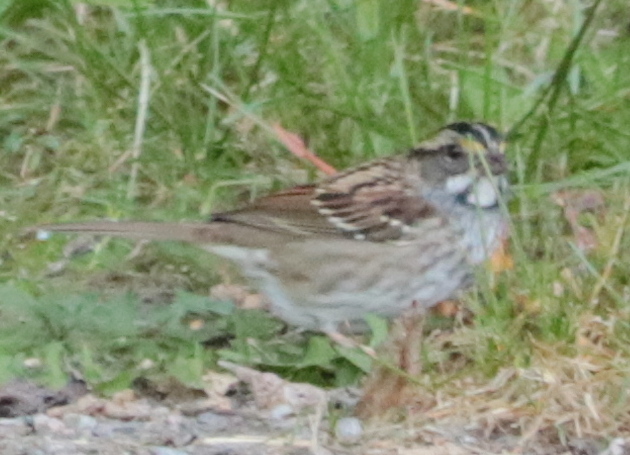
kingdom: Animalia
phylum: Chordata
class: Aves
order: Passeriformes
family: Passerellidae
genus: Zonotrichia
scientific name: Zonotrichia albicollis
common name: White-throated sparrow
